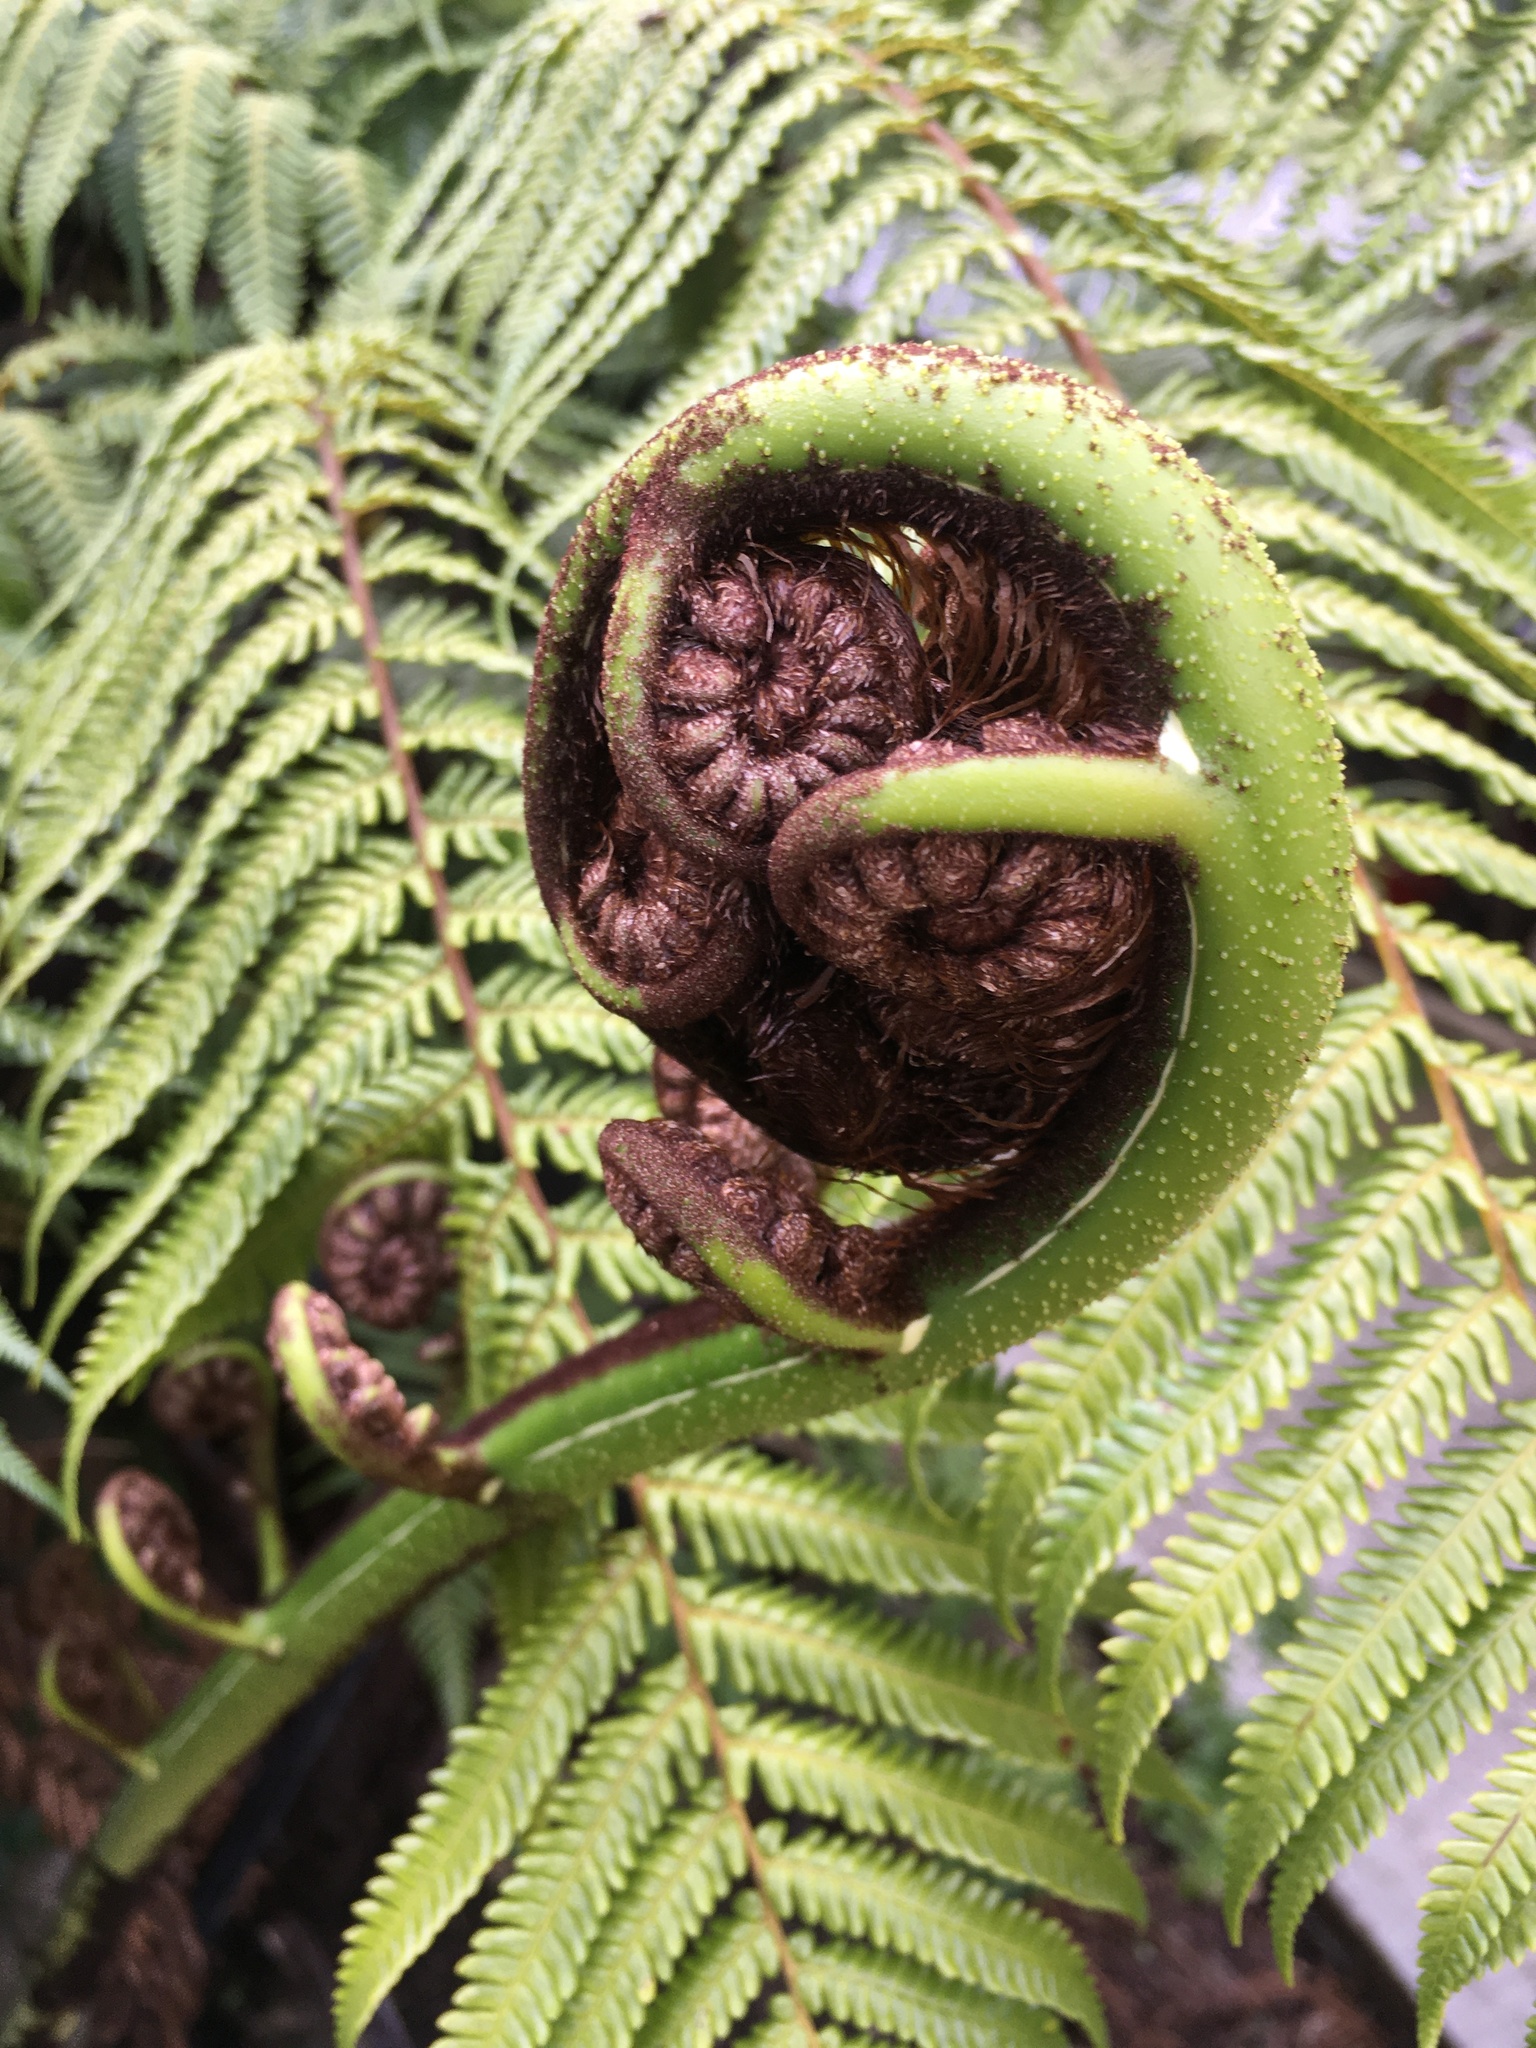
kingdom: Plantae
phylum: Tracheophyta
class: Polypodiopsida
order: Cyatheales
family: Cyatheaceae
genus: Sphaeropteris
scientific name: Sphaeropteris medullaris
